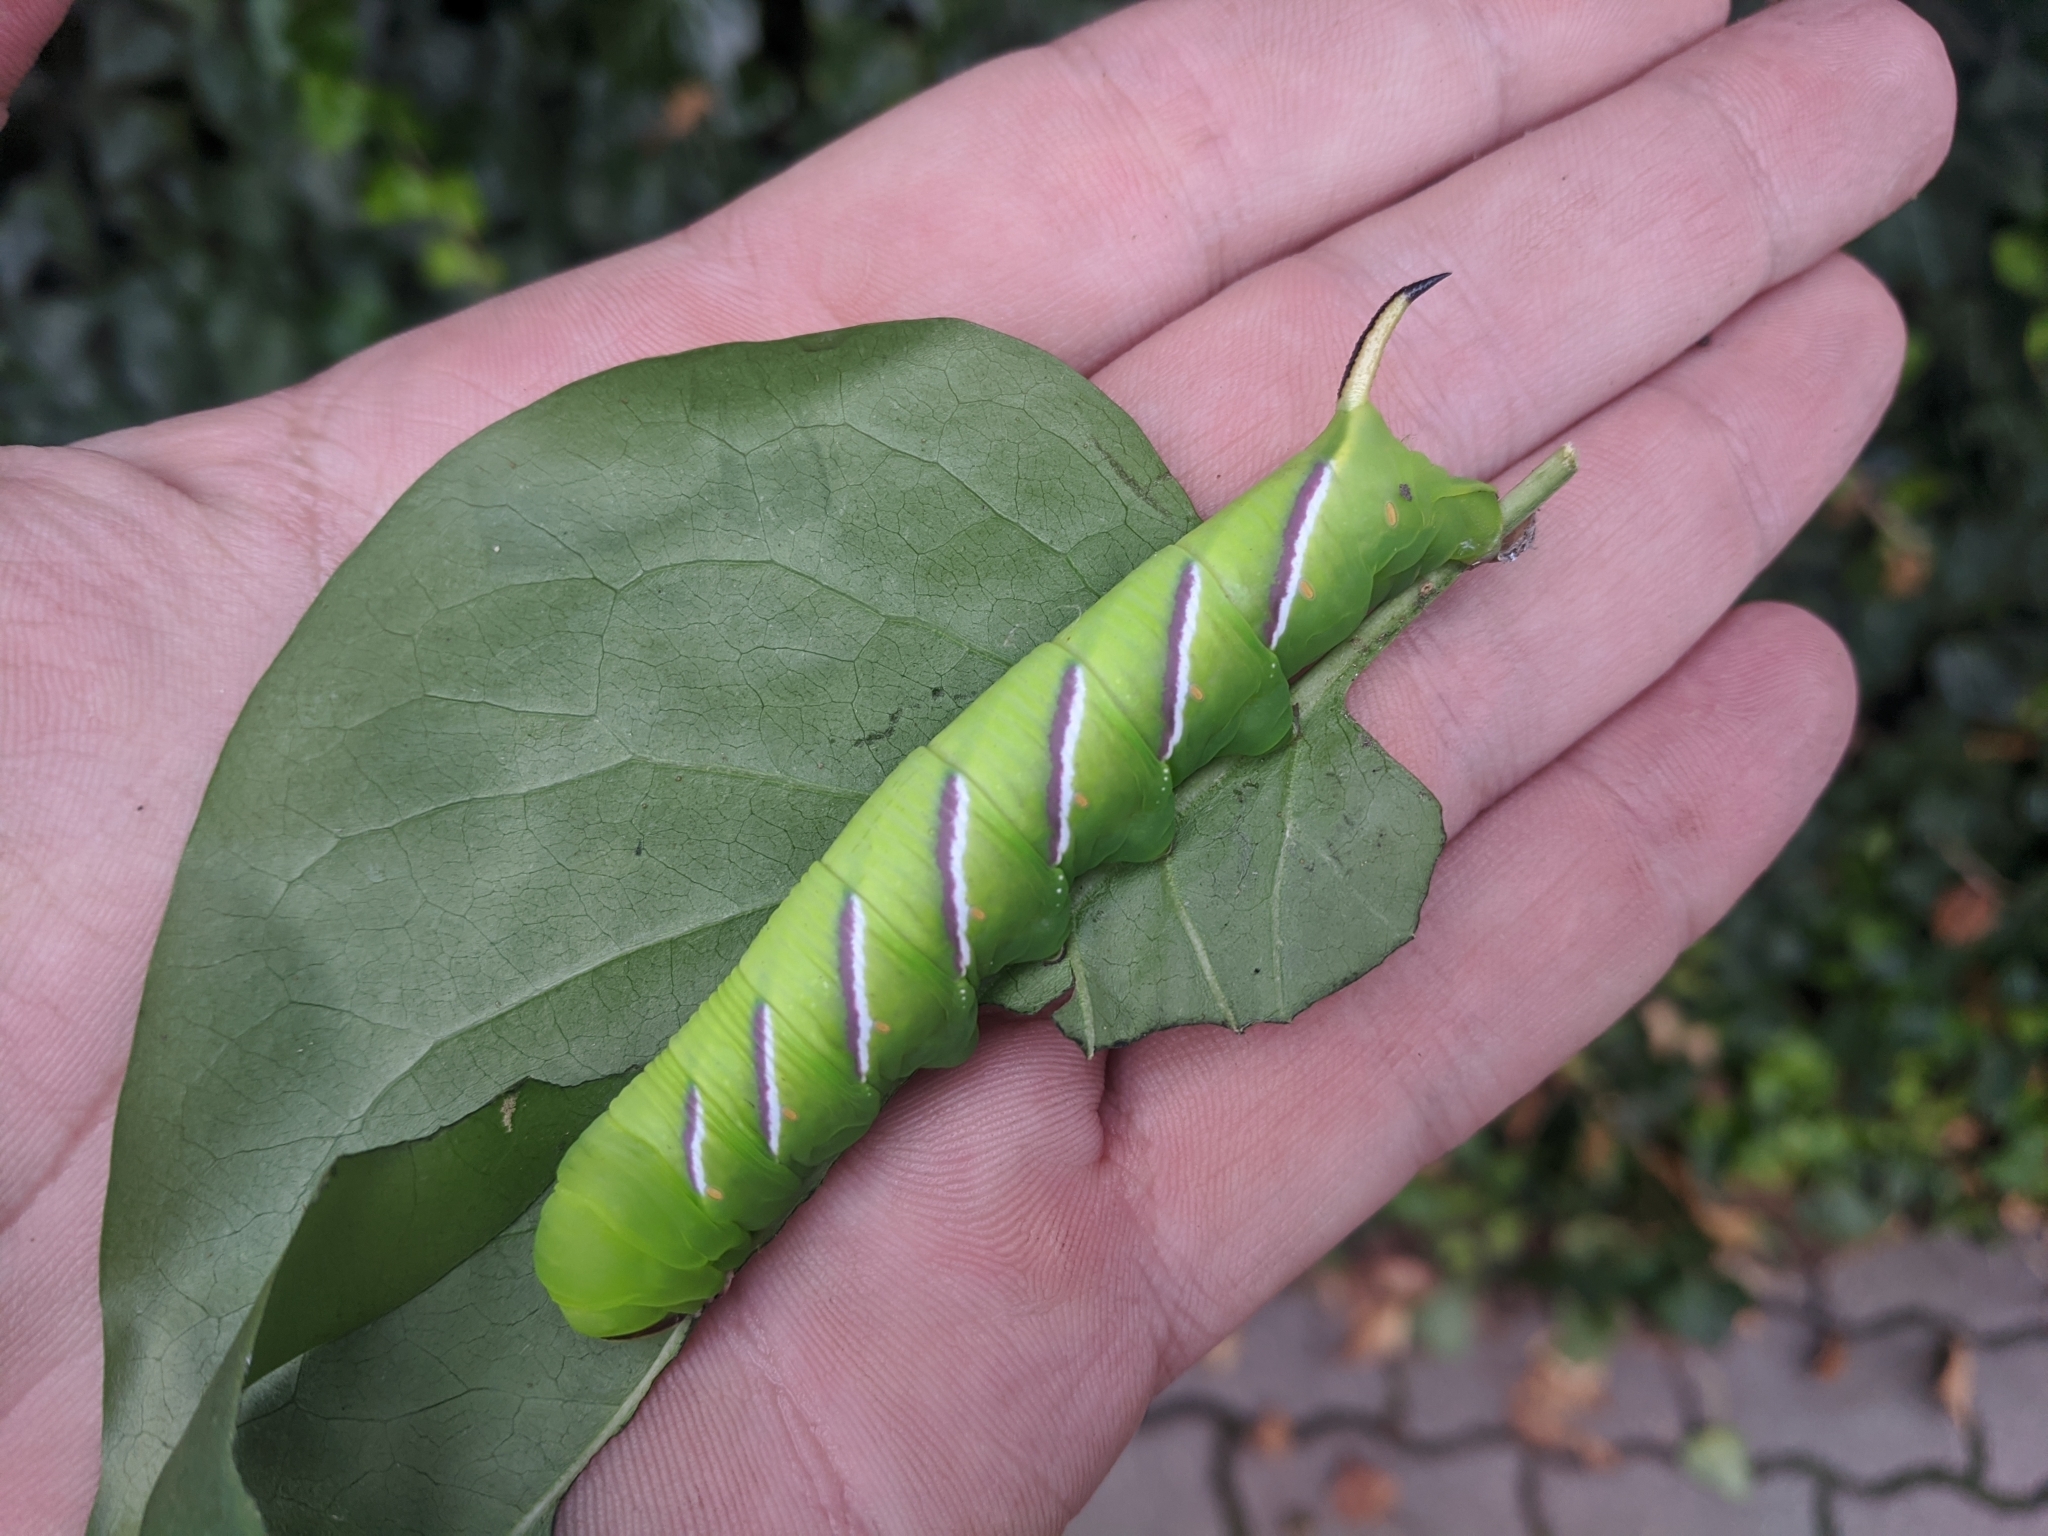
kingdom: Animalia
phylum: Arthropoda
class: Insecta
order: Lepidoptera
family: Sphingidae
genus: Sphinx
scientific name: Sphinx ligustri
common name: Privet hawk-moth
